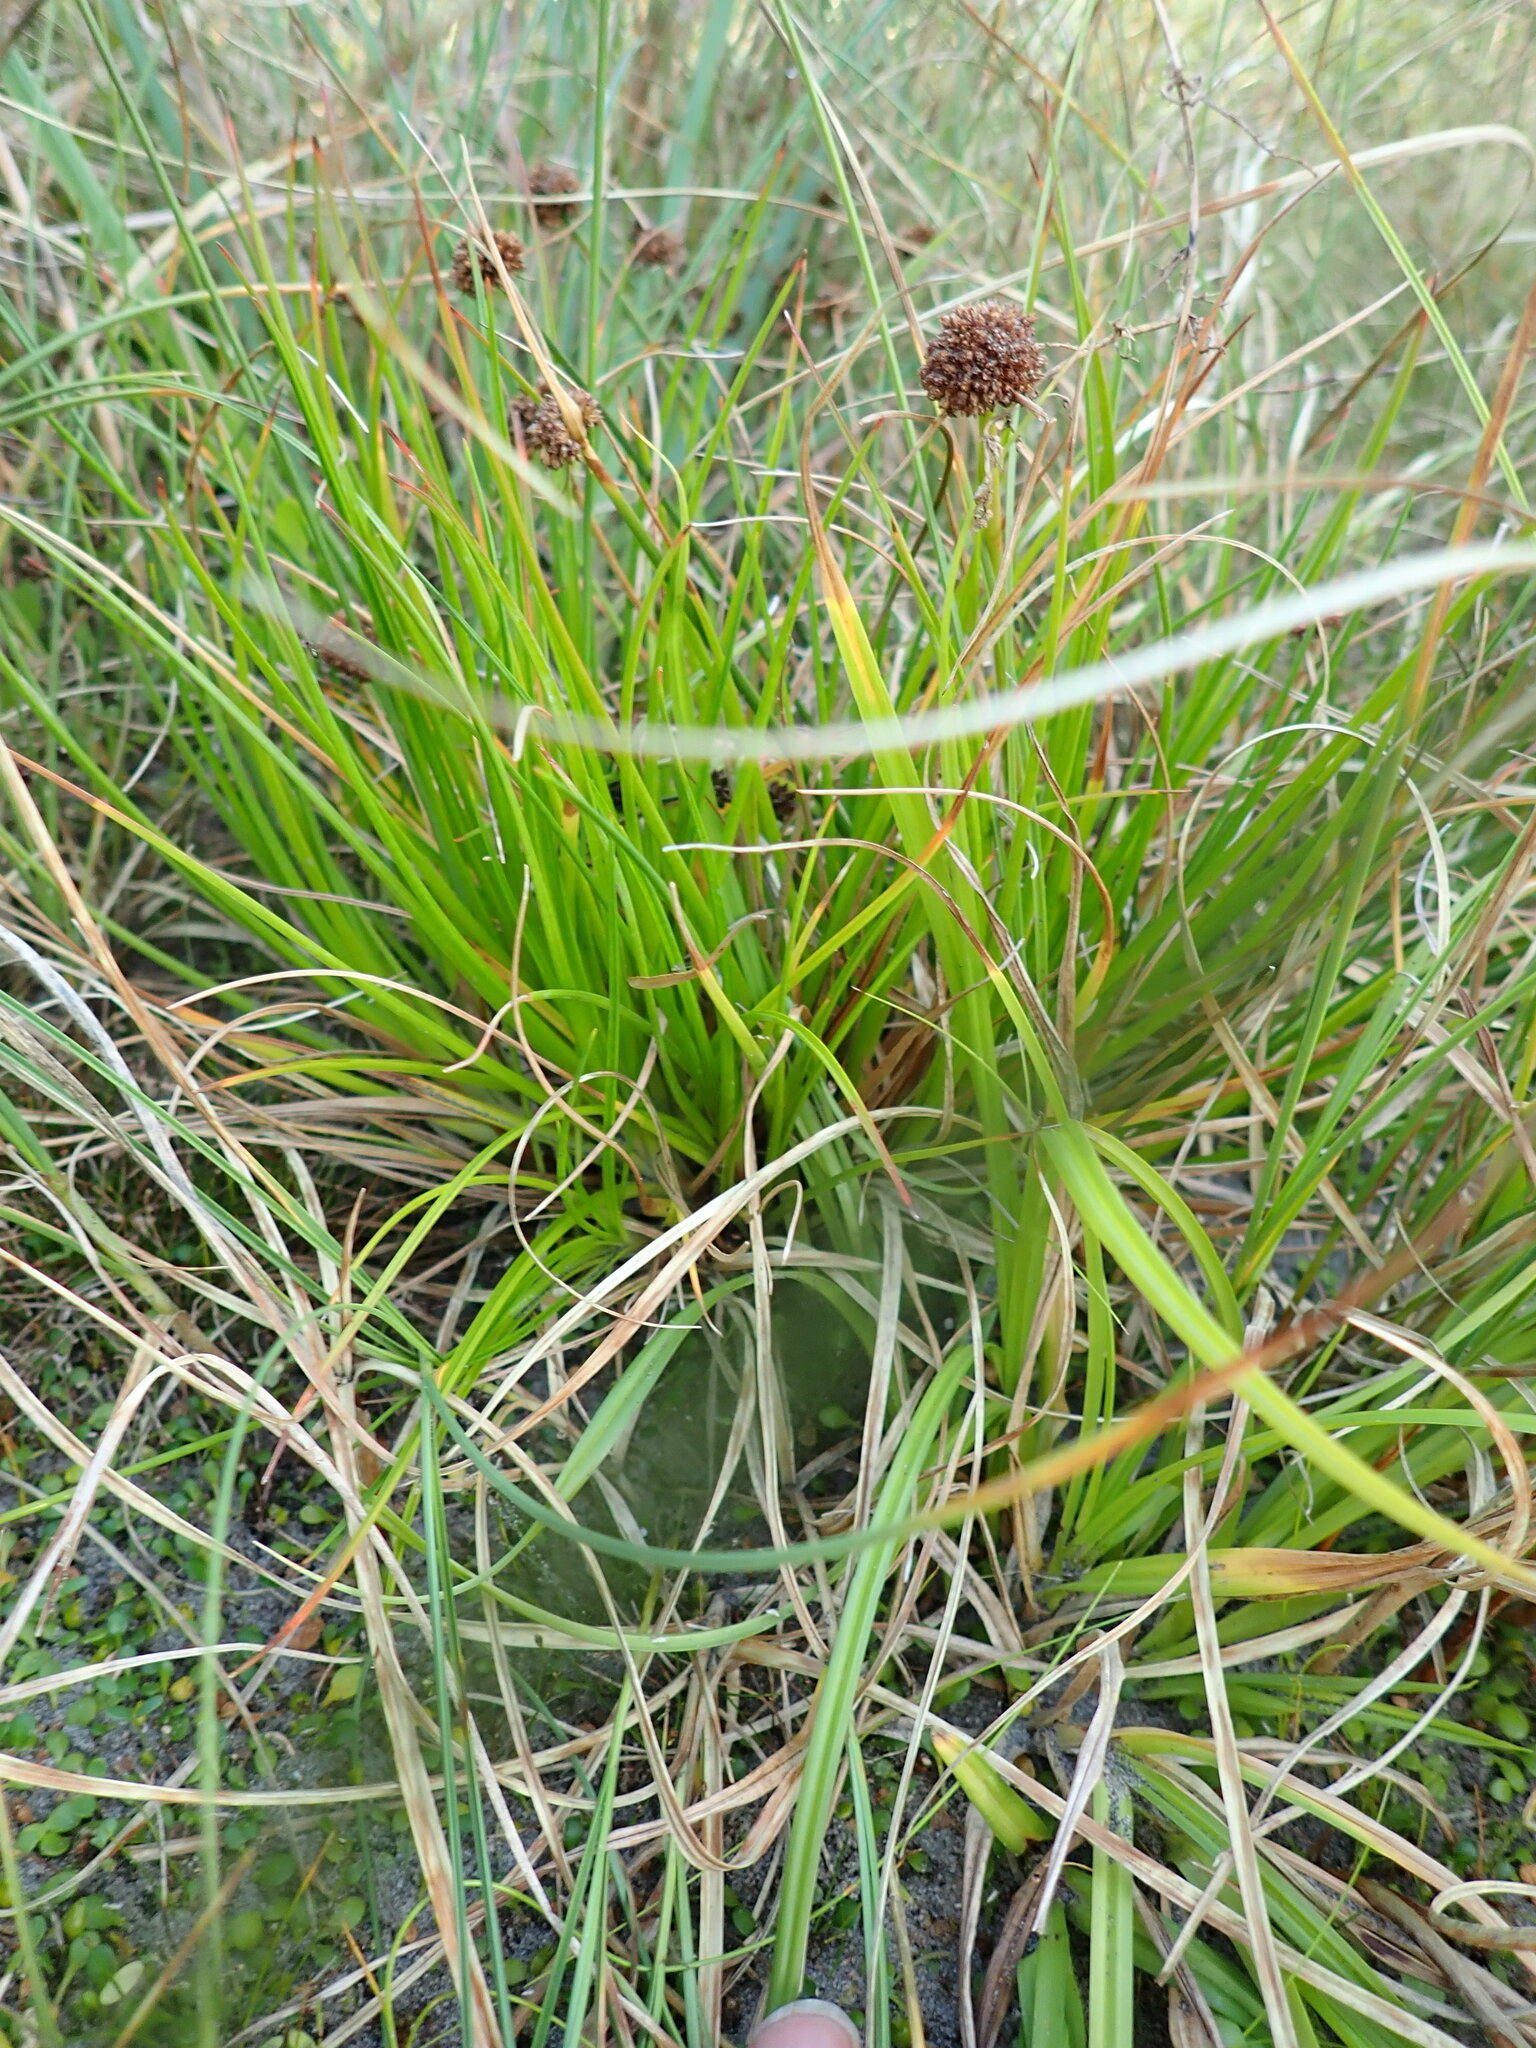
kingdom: Plantae
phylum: Tracheophyta
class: Liliopsida
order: Poales
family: Juncaceae
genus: Juncus
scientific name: Juncus caespiticius
